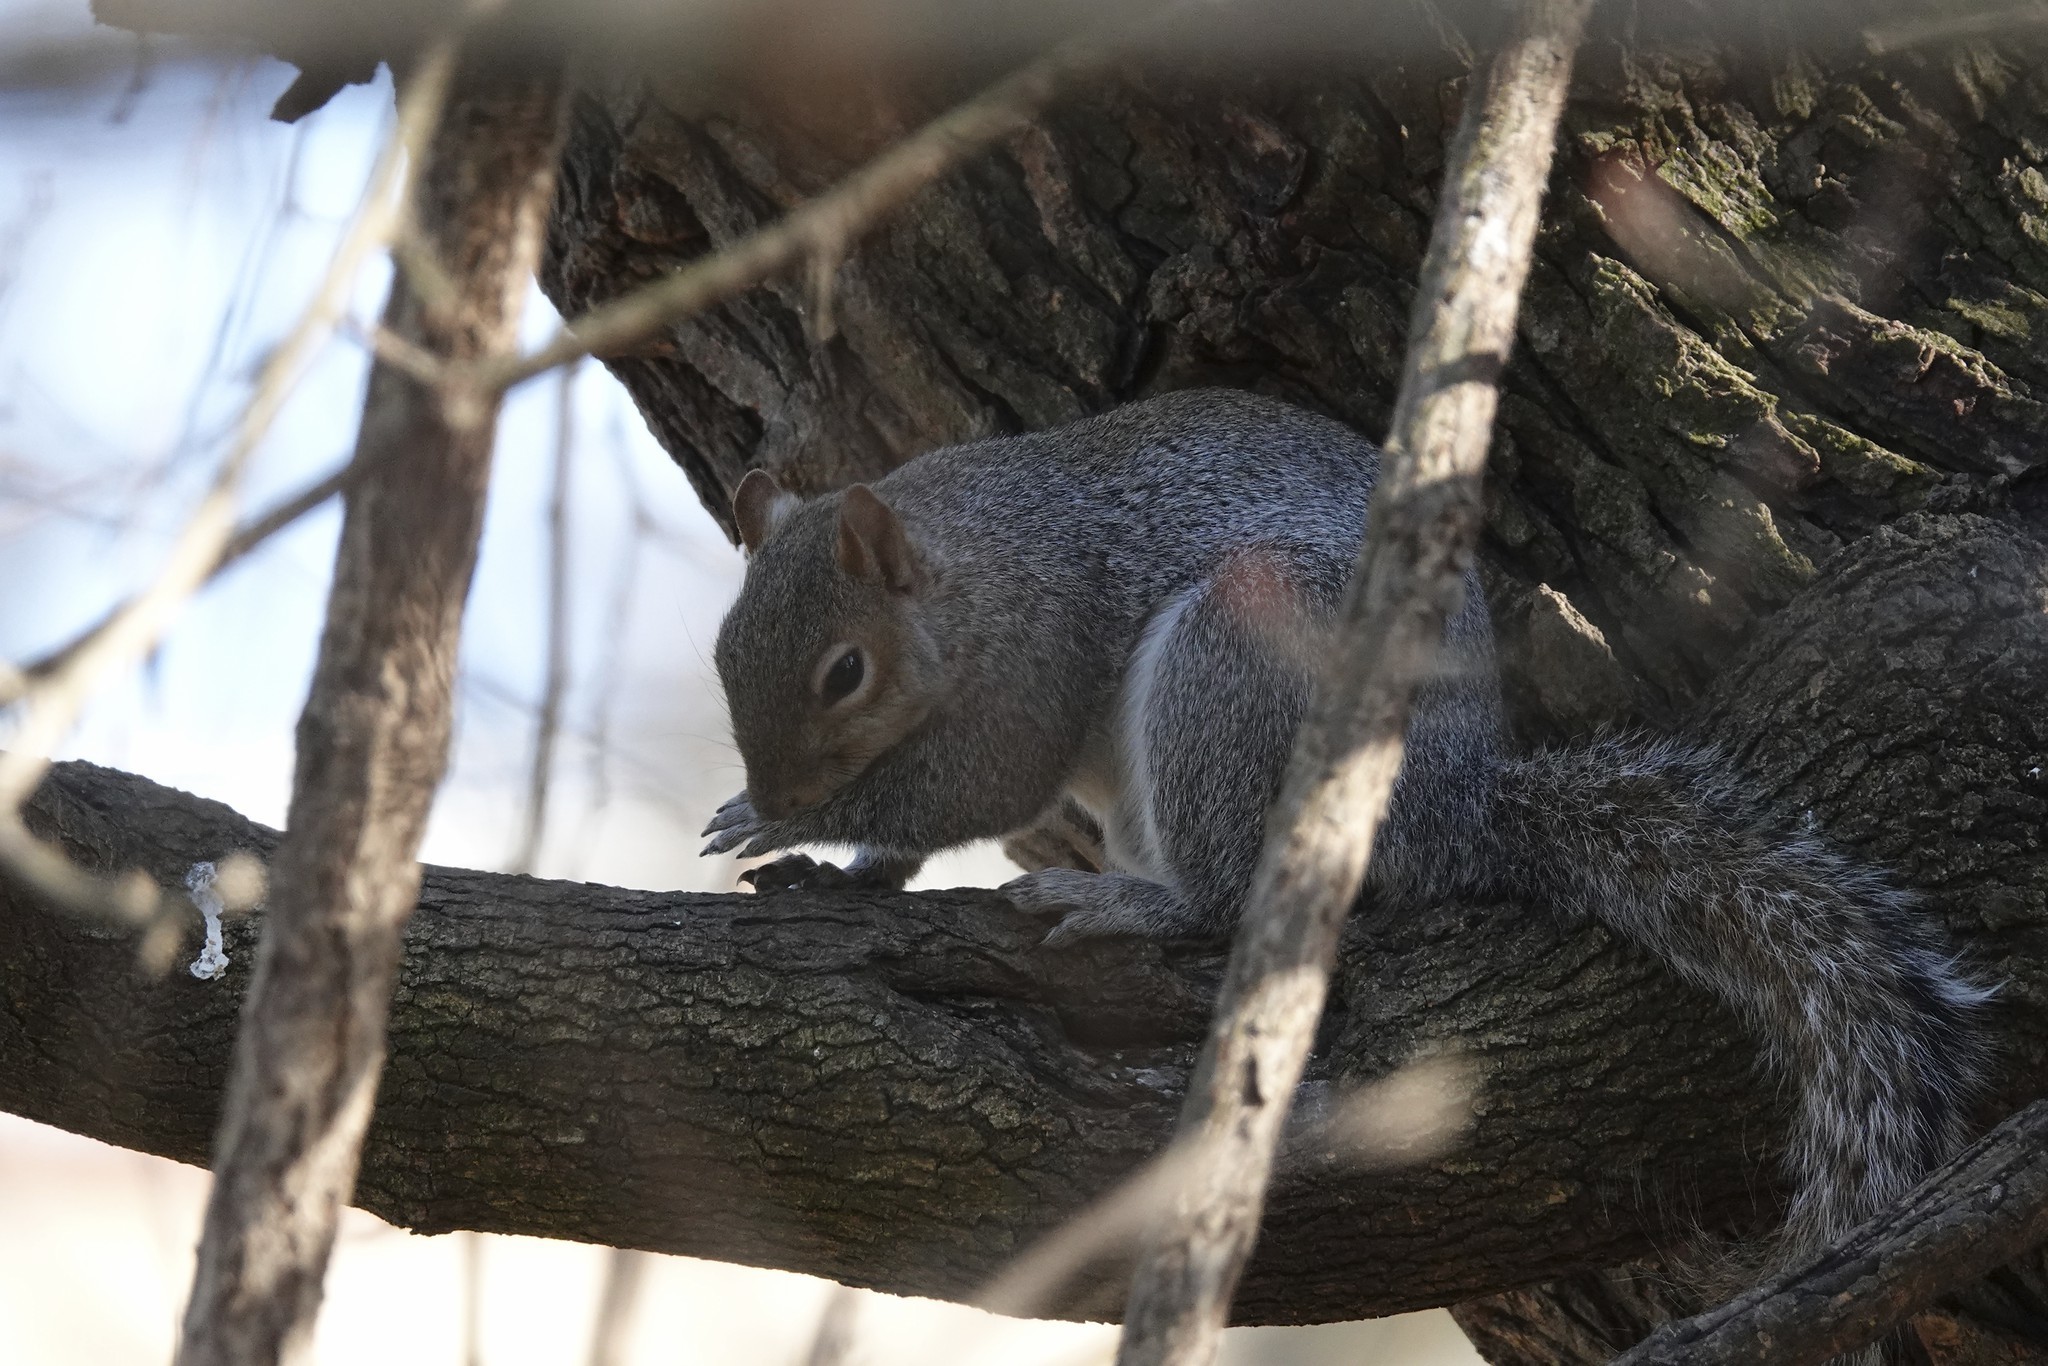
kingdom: Animalia
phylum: Chordata
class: Mammalia
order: Rodentia
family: Sciuridae
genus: Sciurus
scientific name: Sciurus carolinensis
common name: Eastern gray squirrel
